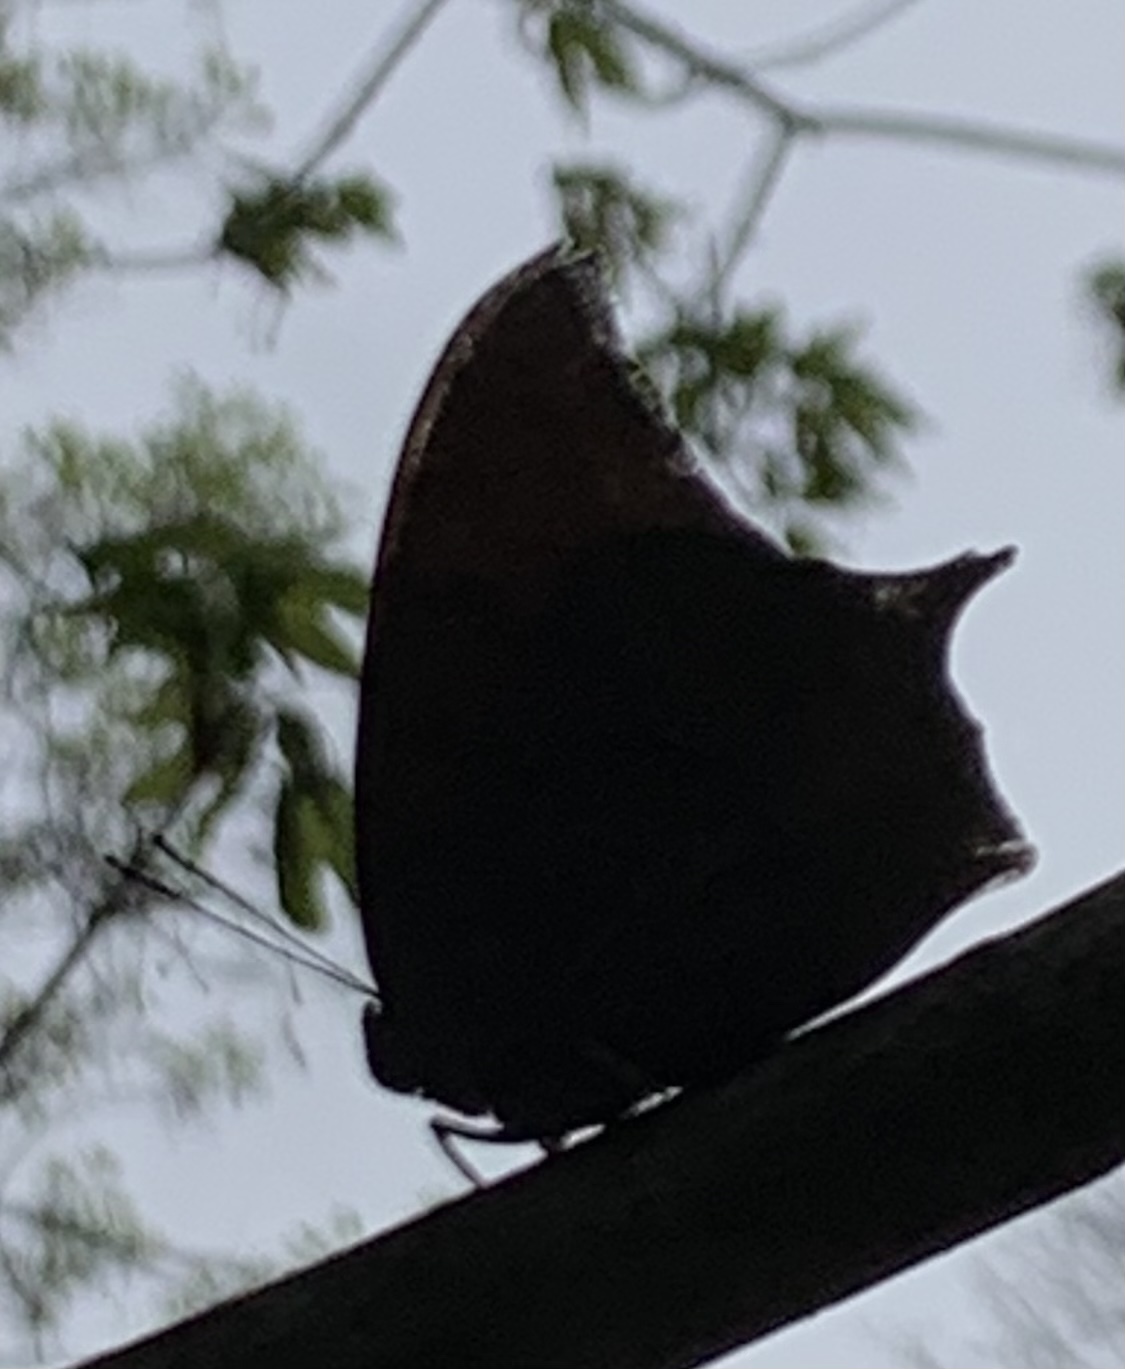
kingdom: Animalia
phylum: Arthropoda
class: Insecta
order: Lepidoptera
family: Nymphalidae
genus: Anaea
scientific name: Anaea andria
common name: Goatweed leafwing
